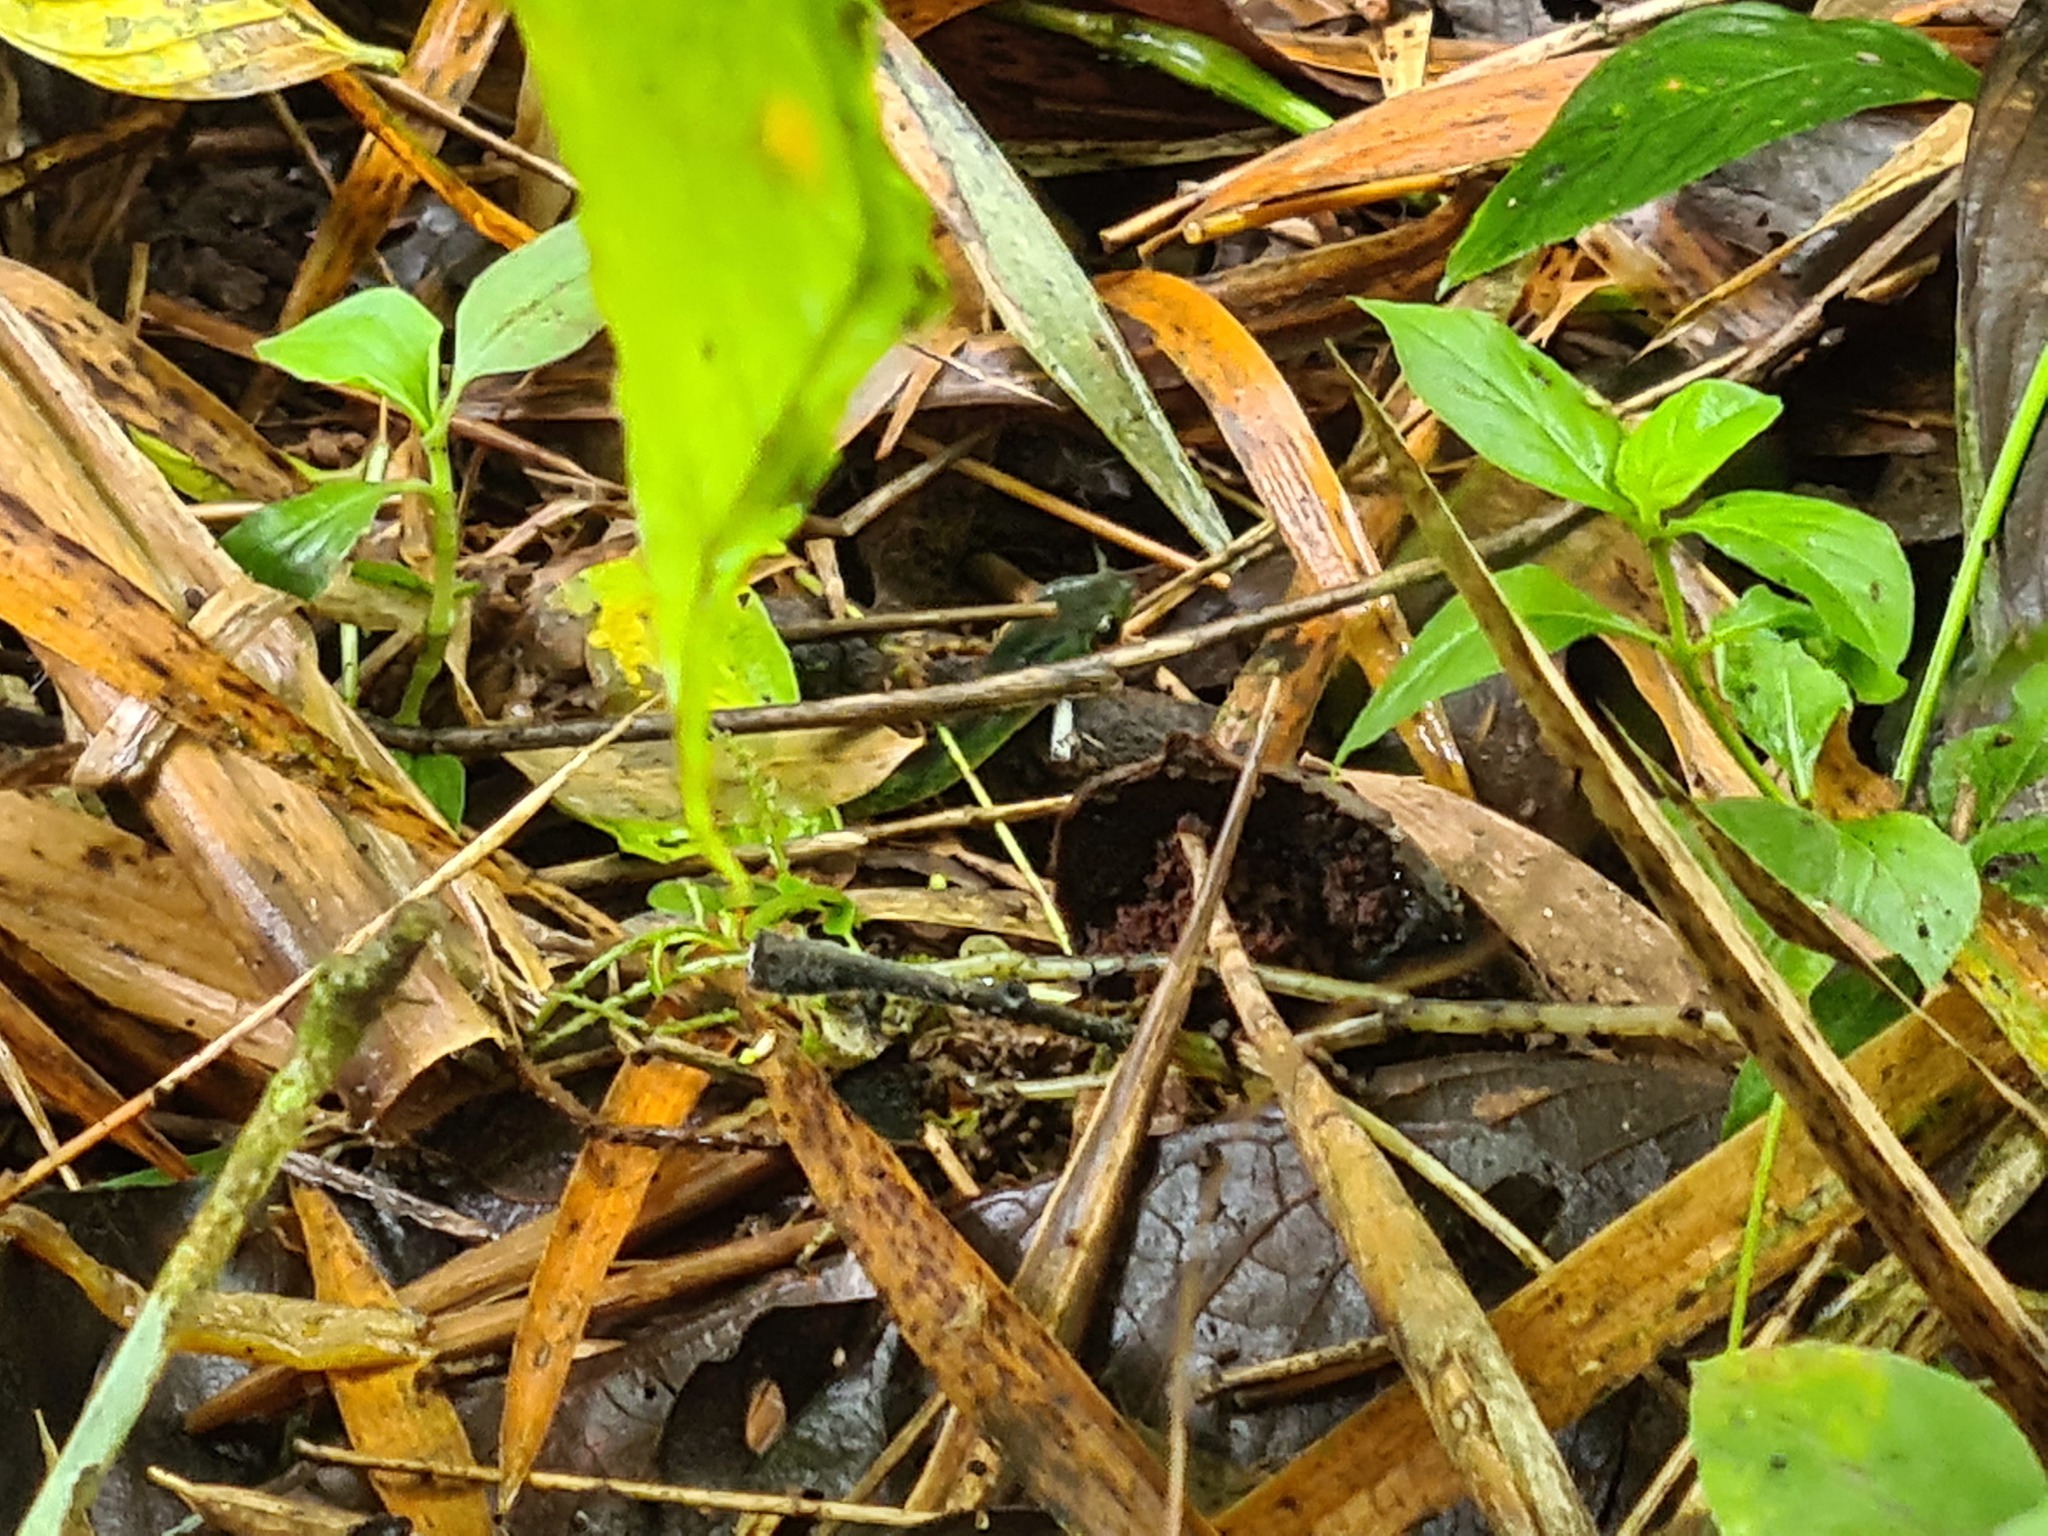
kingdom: Animalia
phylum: Chordata
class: Squamata
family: Colubridae
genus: Dendrophidion
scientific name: Dendrophidion graciliverpa
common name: Slender forest-racer
